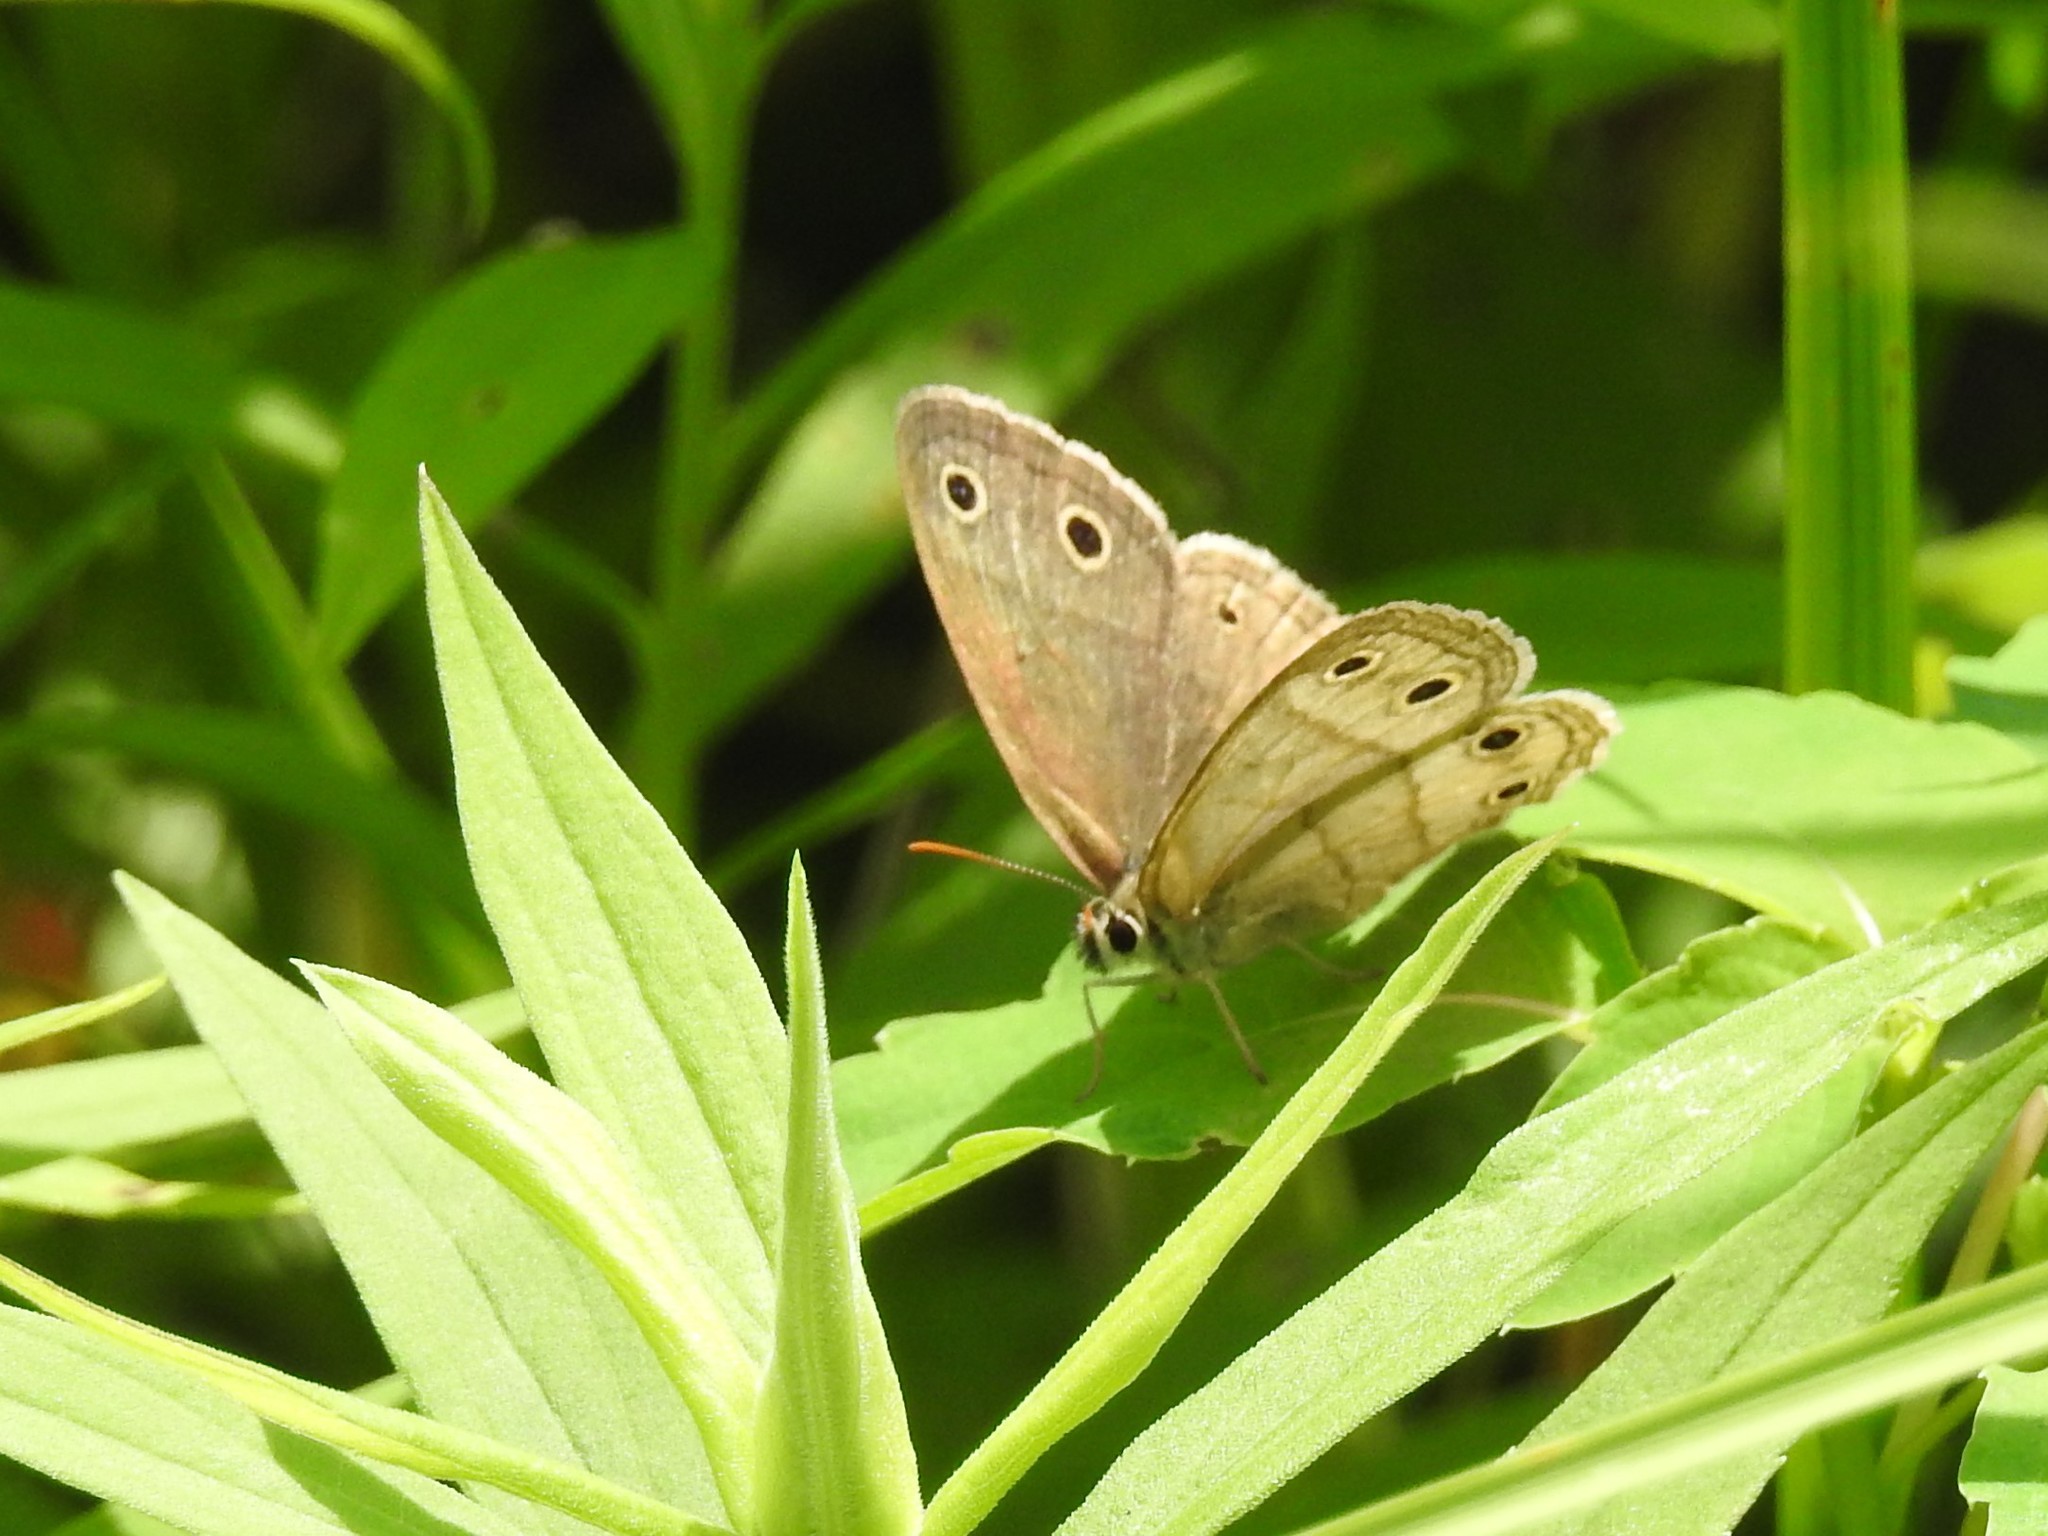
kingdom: Animalia
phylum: Arthropoda
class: Insecta
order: Lepidoptera
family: Nymphalidae
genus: Euptychia
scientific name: Euptychia cymela
